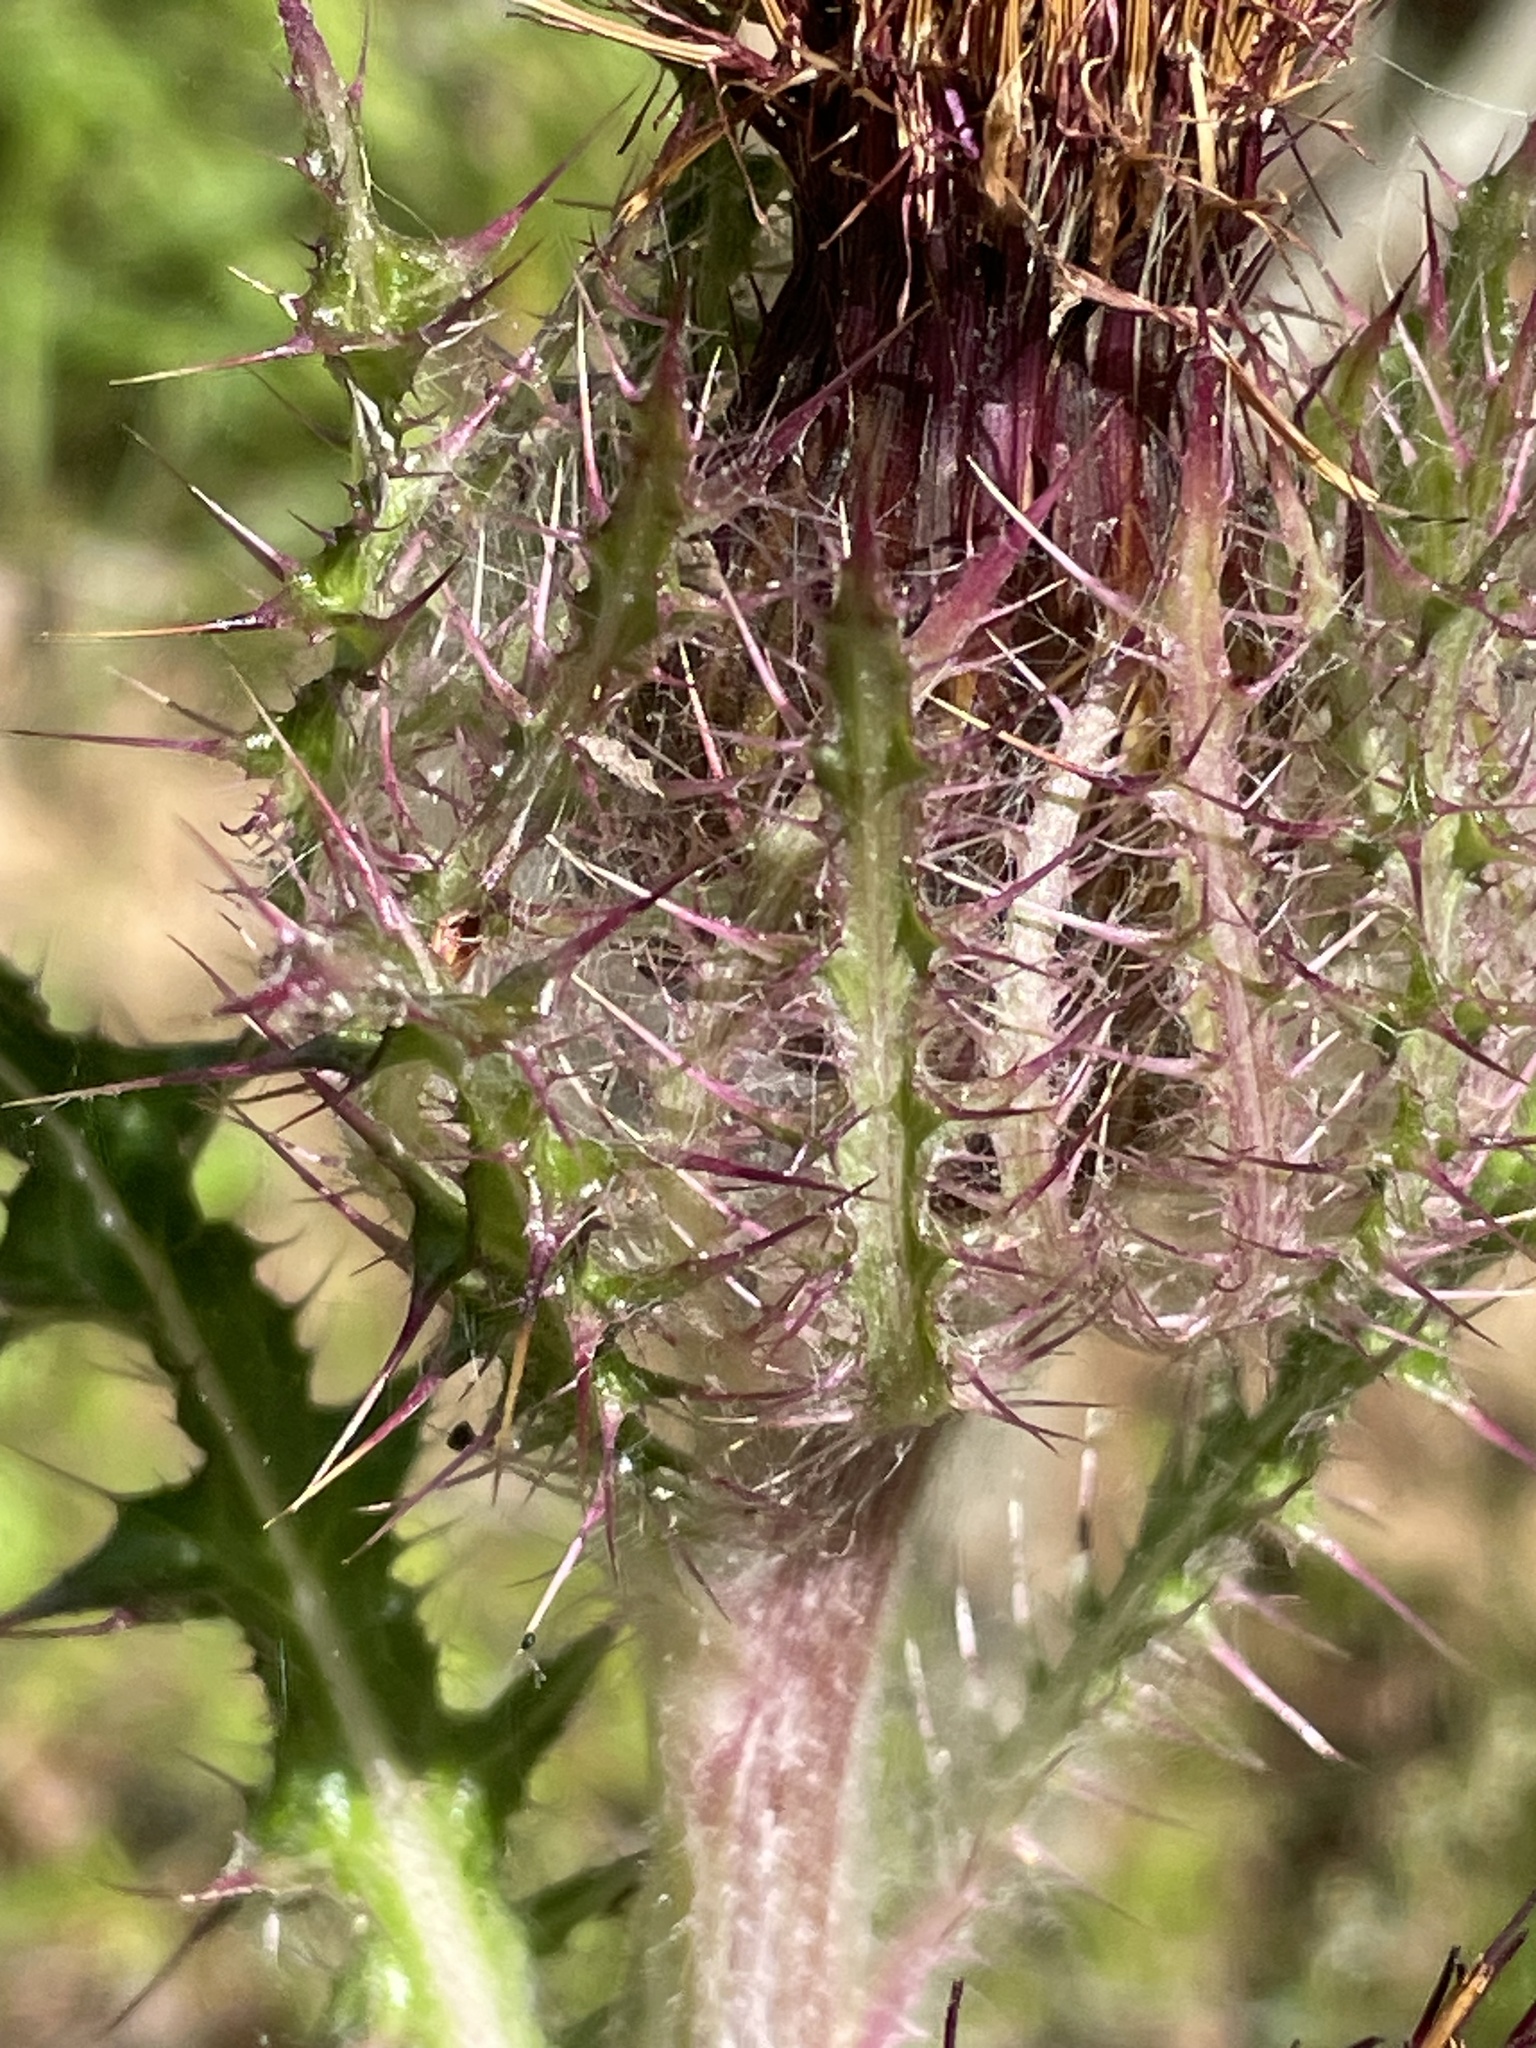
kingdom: Plantae
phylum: Tracheophyta
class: Magnoliopsida
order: Asterales
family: Asteraceae
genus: Cirsium
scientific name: Cirsium horridulum
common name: Bristly thistle
